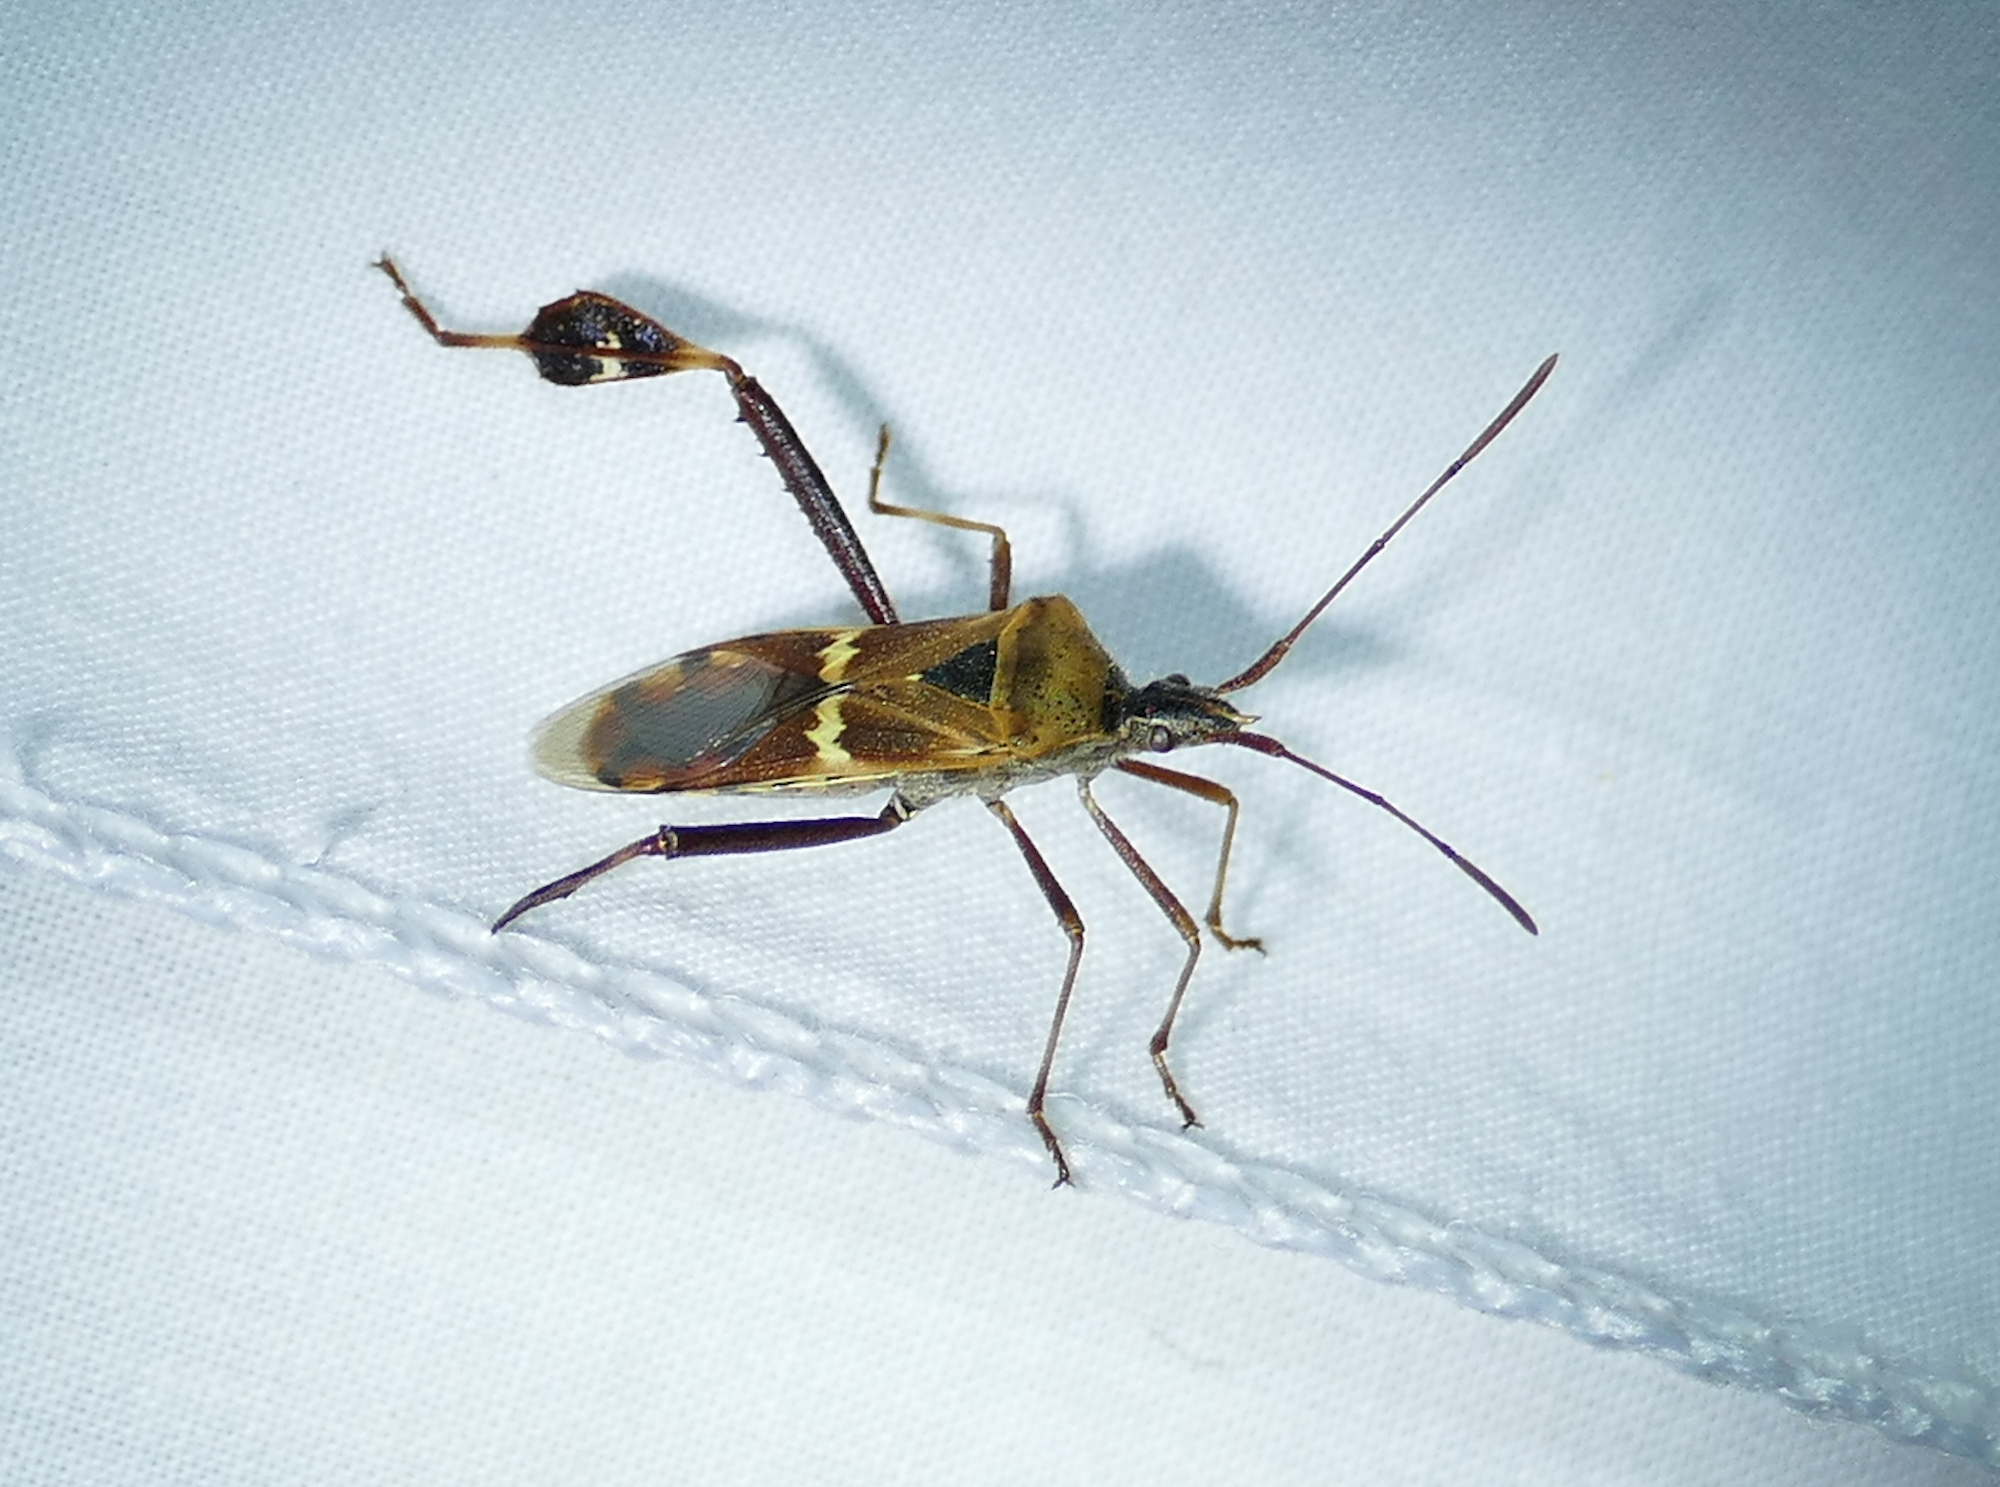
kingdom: Animalia
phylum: Arthropoda
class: Insecta
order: Hemiptera
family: Coreidae
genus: Leptoglossus
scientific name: Leptoglossus clypealis
